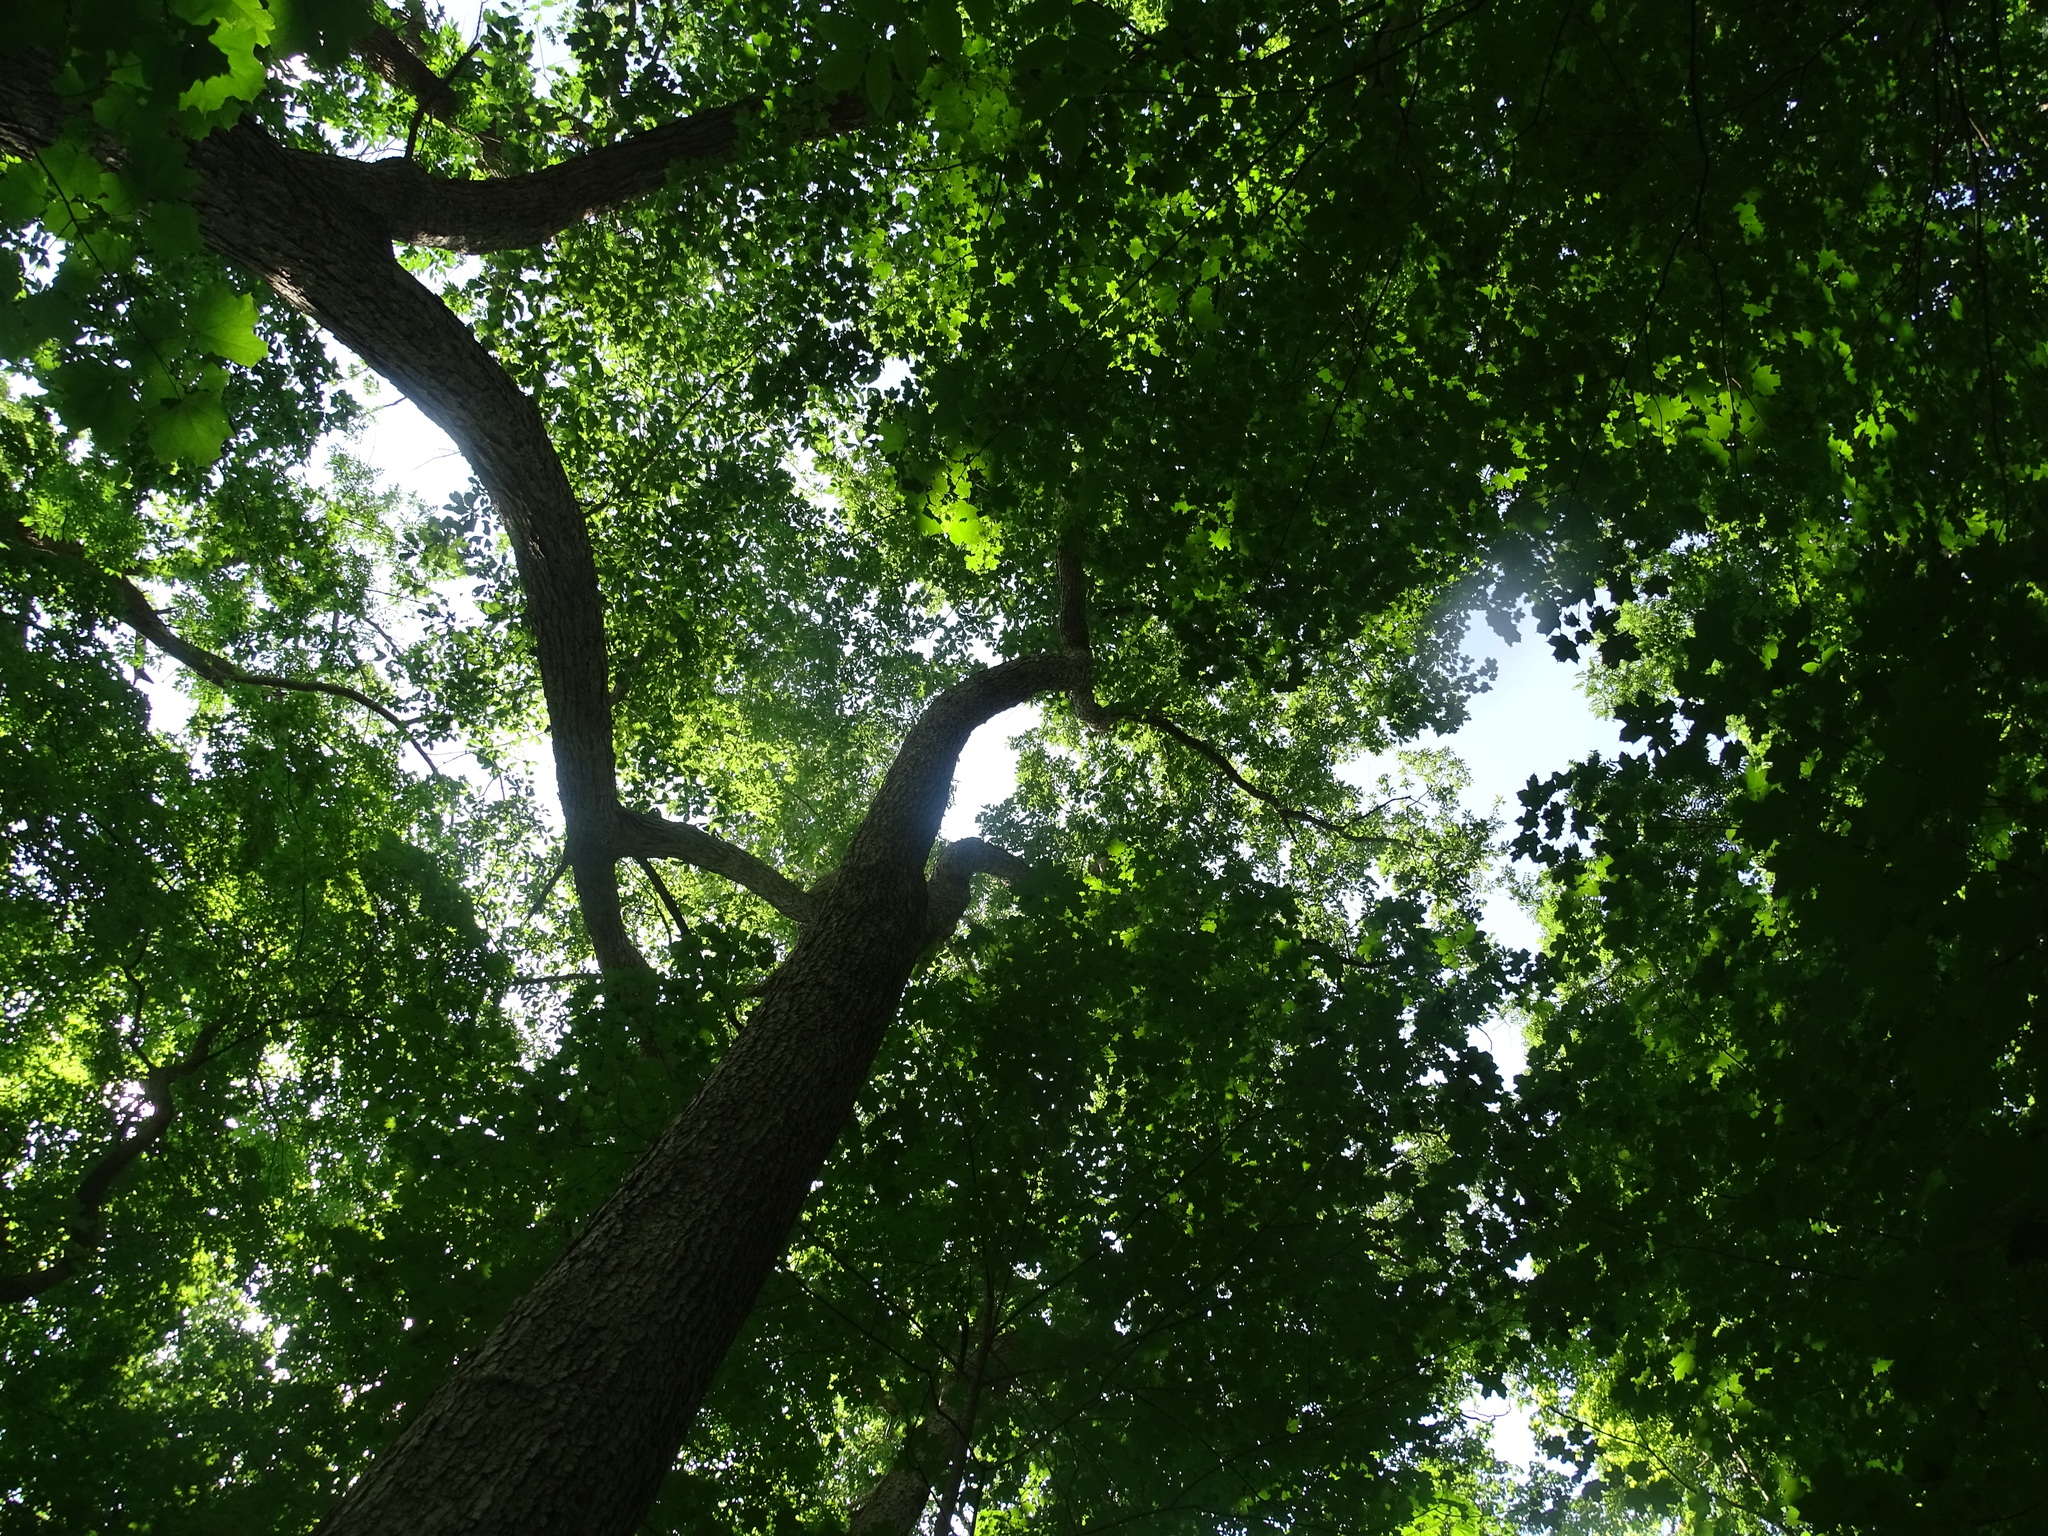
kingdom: Plantae
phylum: Tracheophyta
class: Magnoliopsida
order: Fagales
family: Fagaceae
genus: Quercus
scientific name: Quercus muehlenbergii
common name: Chinkapin oak
